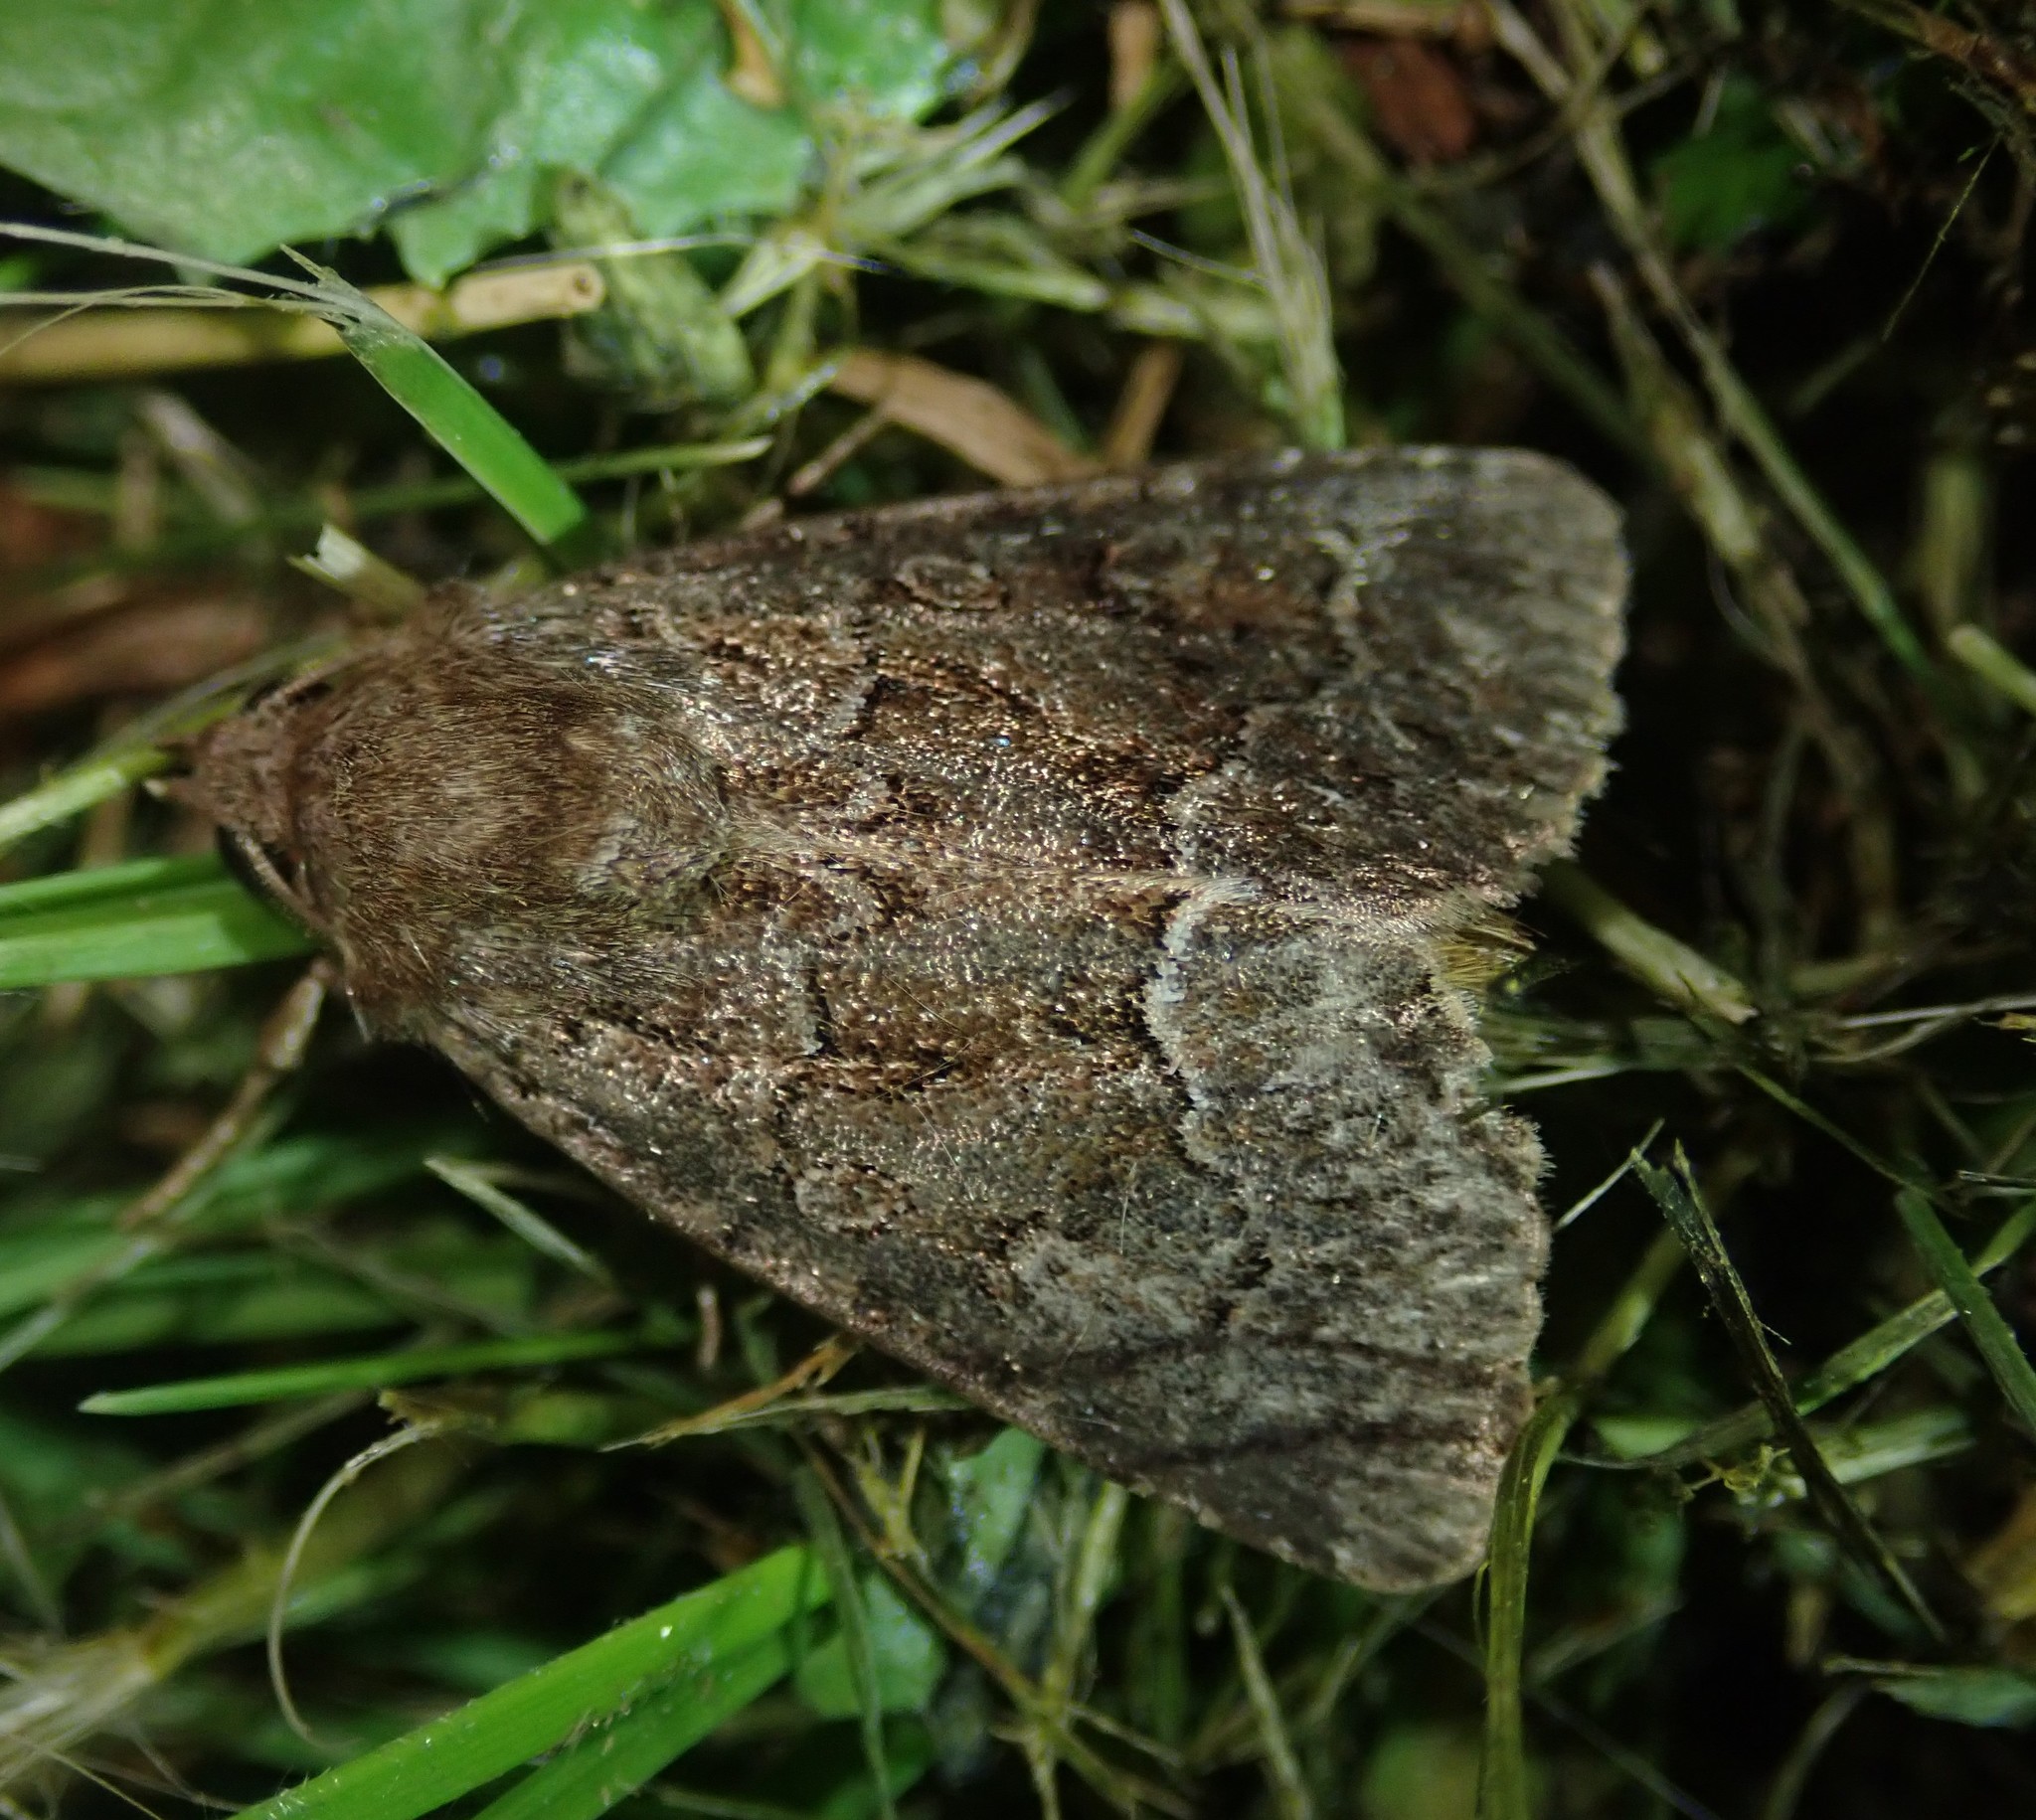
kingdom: Animalia
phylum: Arthropoda
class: Insecta
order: Lepidoptera
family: Noctuidae
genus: Thalpophila
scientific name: Thalpophila matura
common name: Straw underwing
